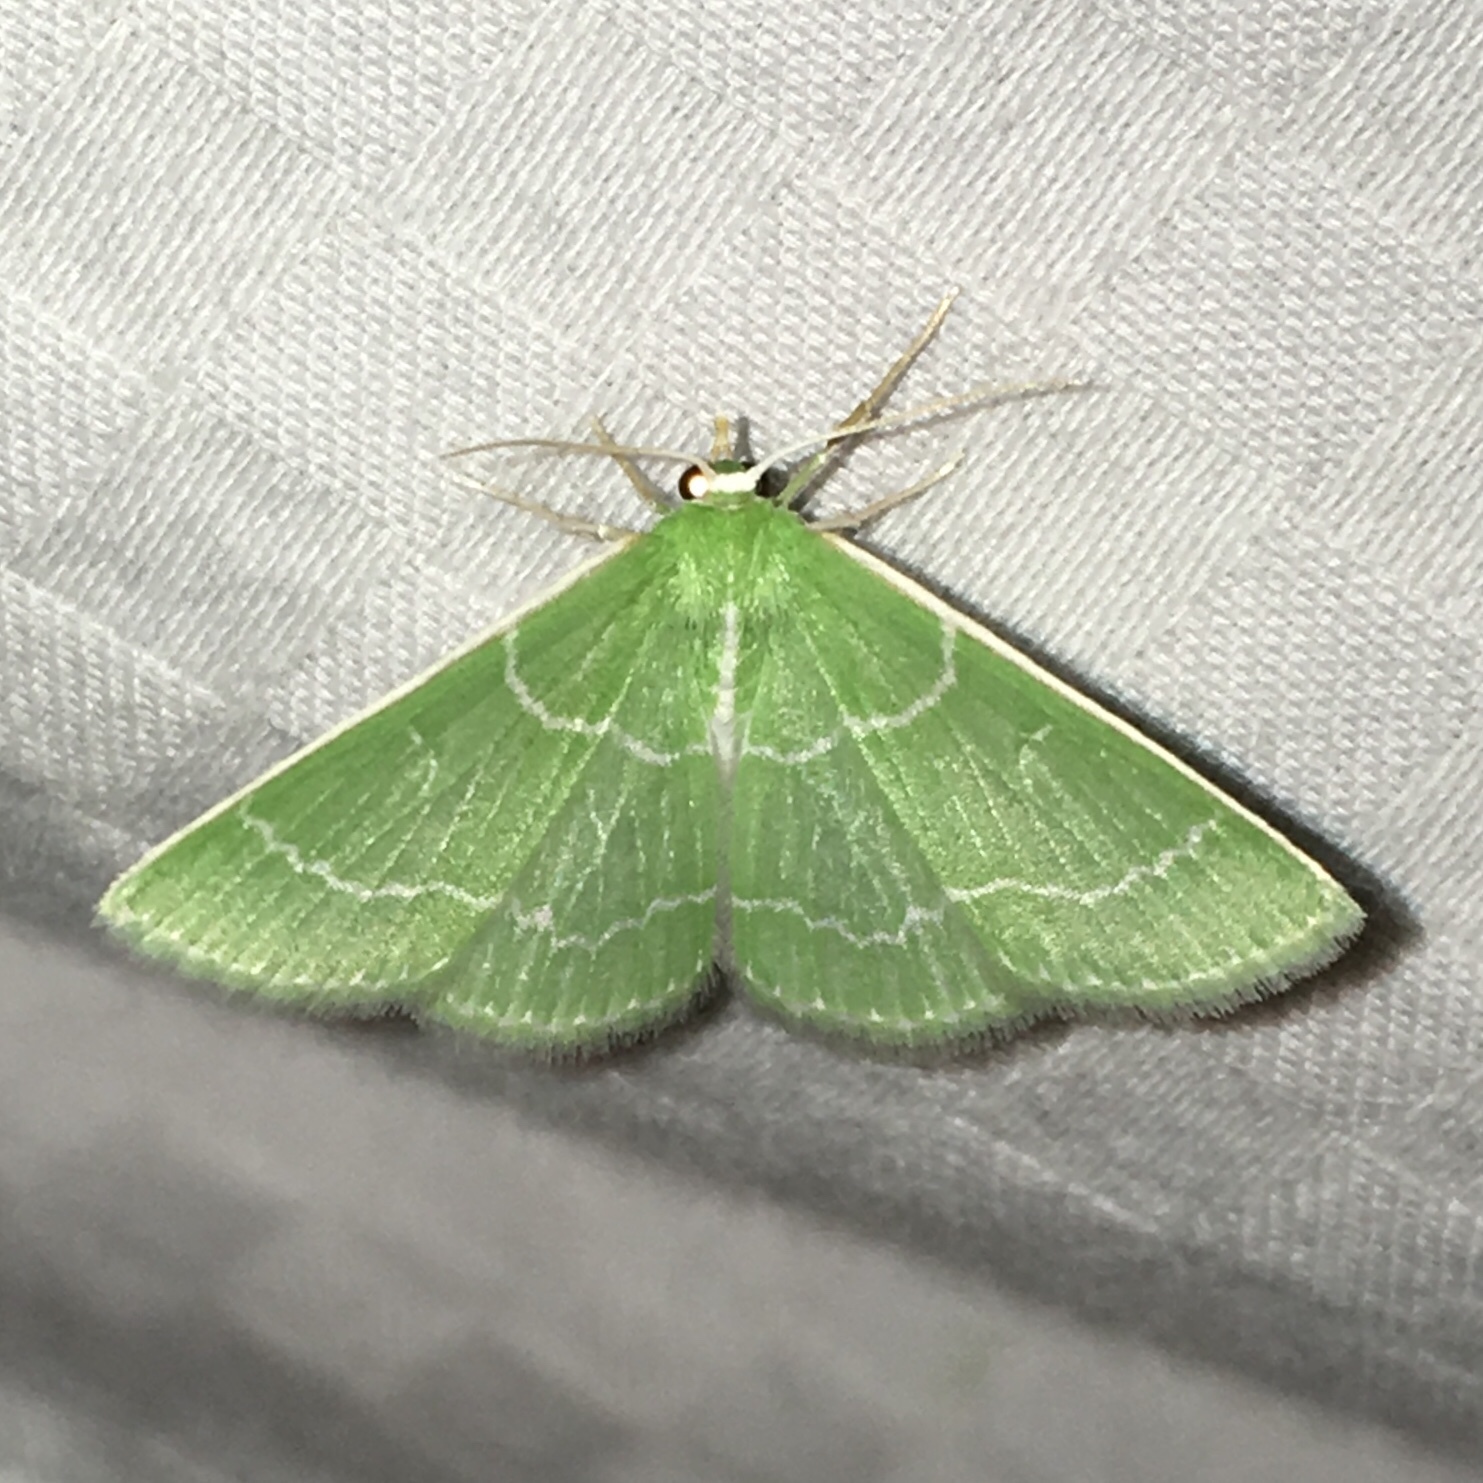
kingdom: Animalia
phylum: Arthropoda
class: Insecta
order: Lepidoptera
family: Geometridae
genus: Synchlora
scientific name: Synchlora aerata
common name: Wavy-lined emerald
